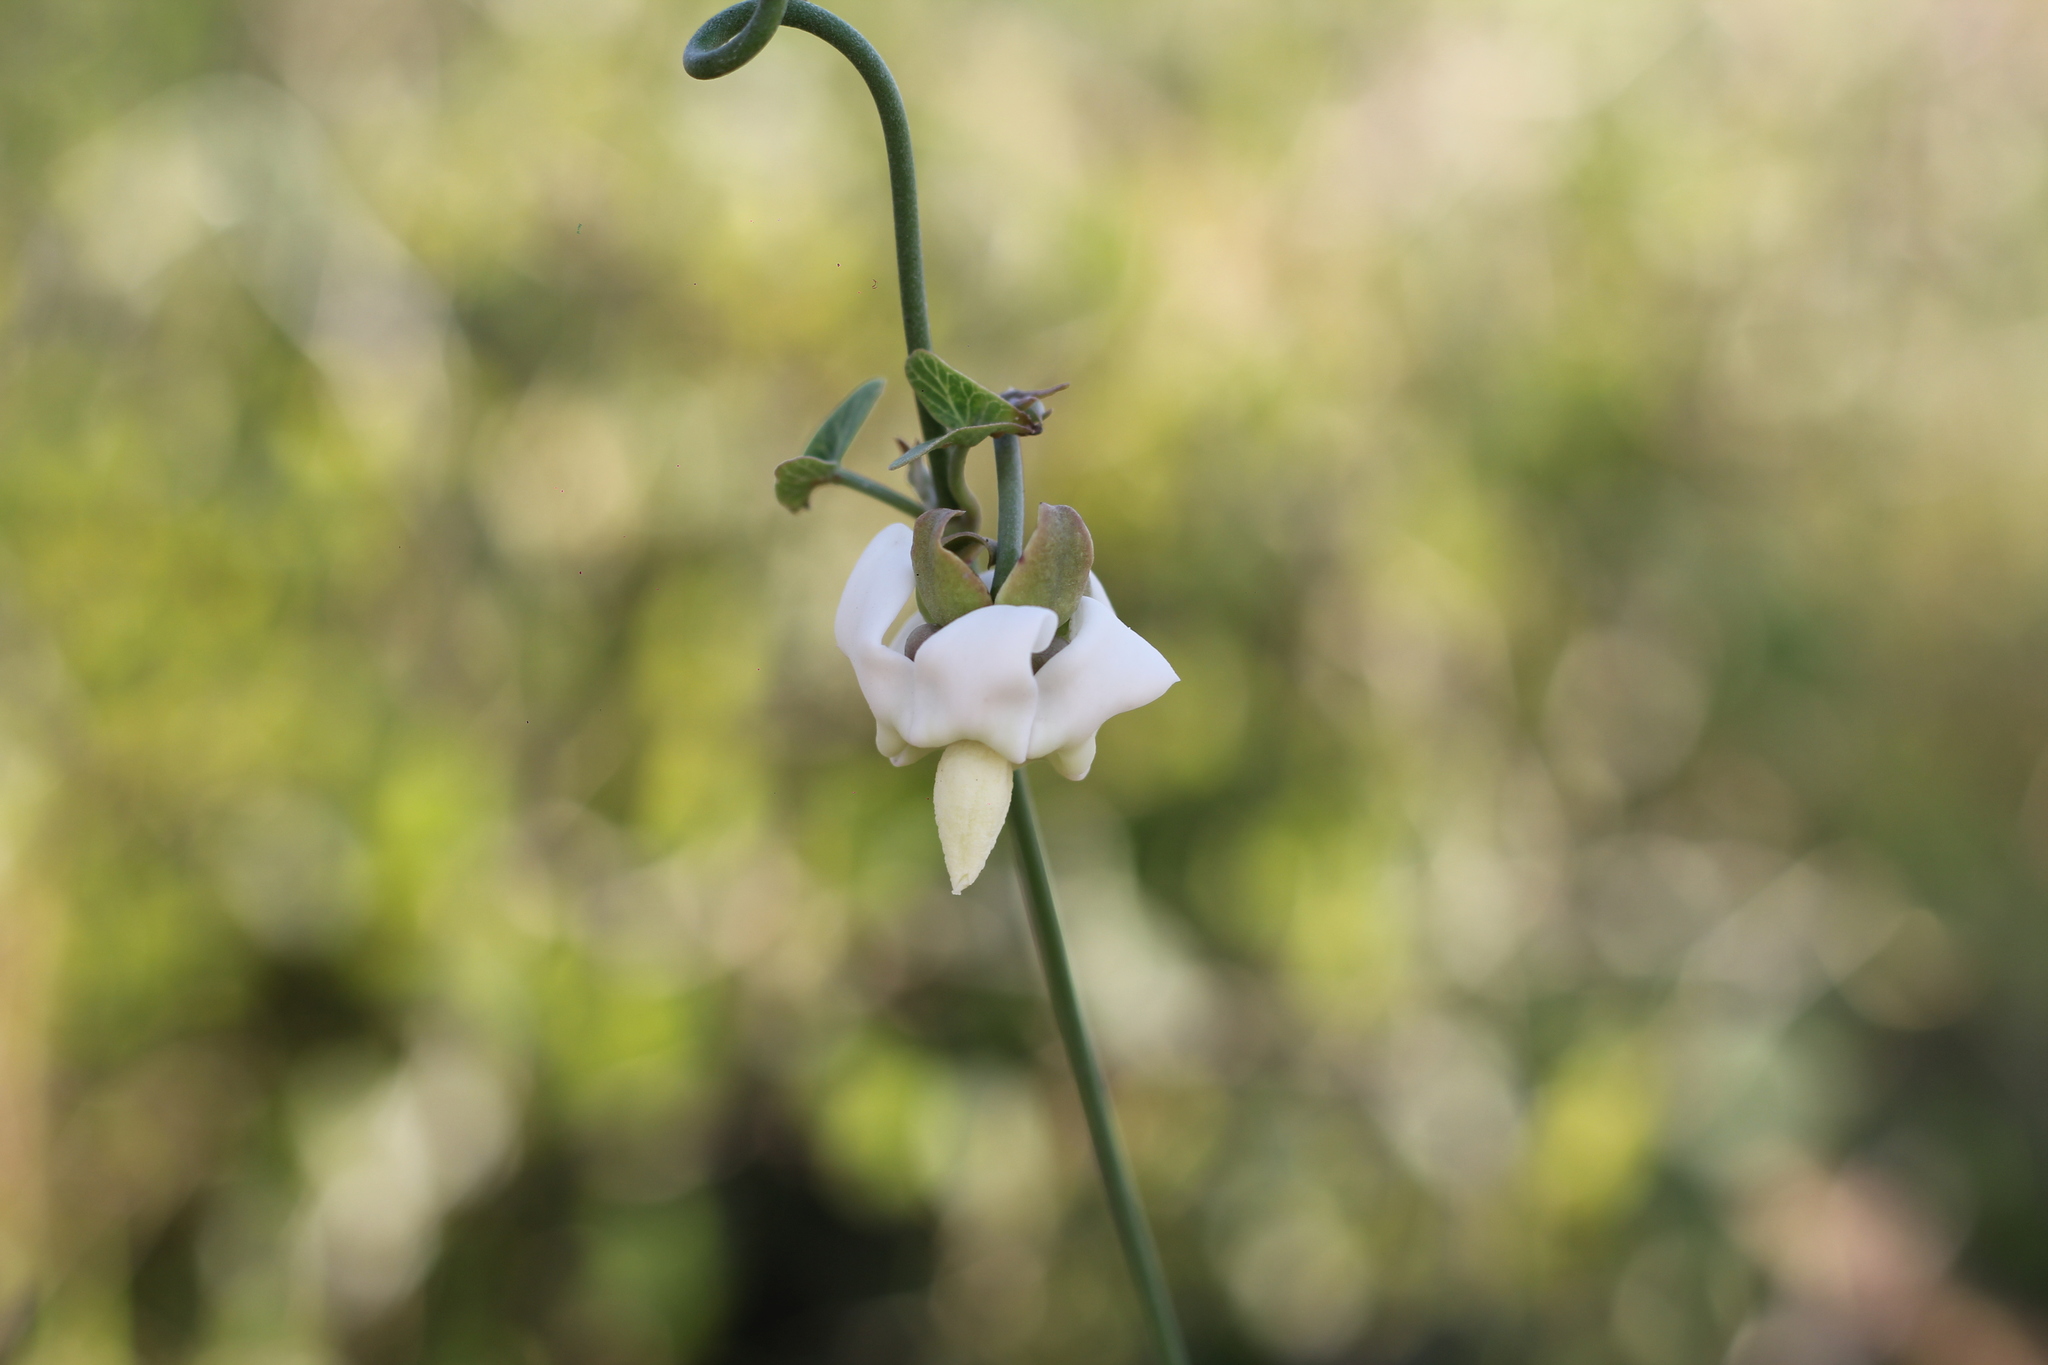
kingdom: Plantae
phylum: Tracheophyta
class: Magnoliopsida
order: Gentianales
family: Apocynaceae
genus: Araujia
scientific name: Araujia angustifolia
